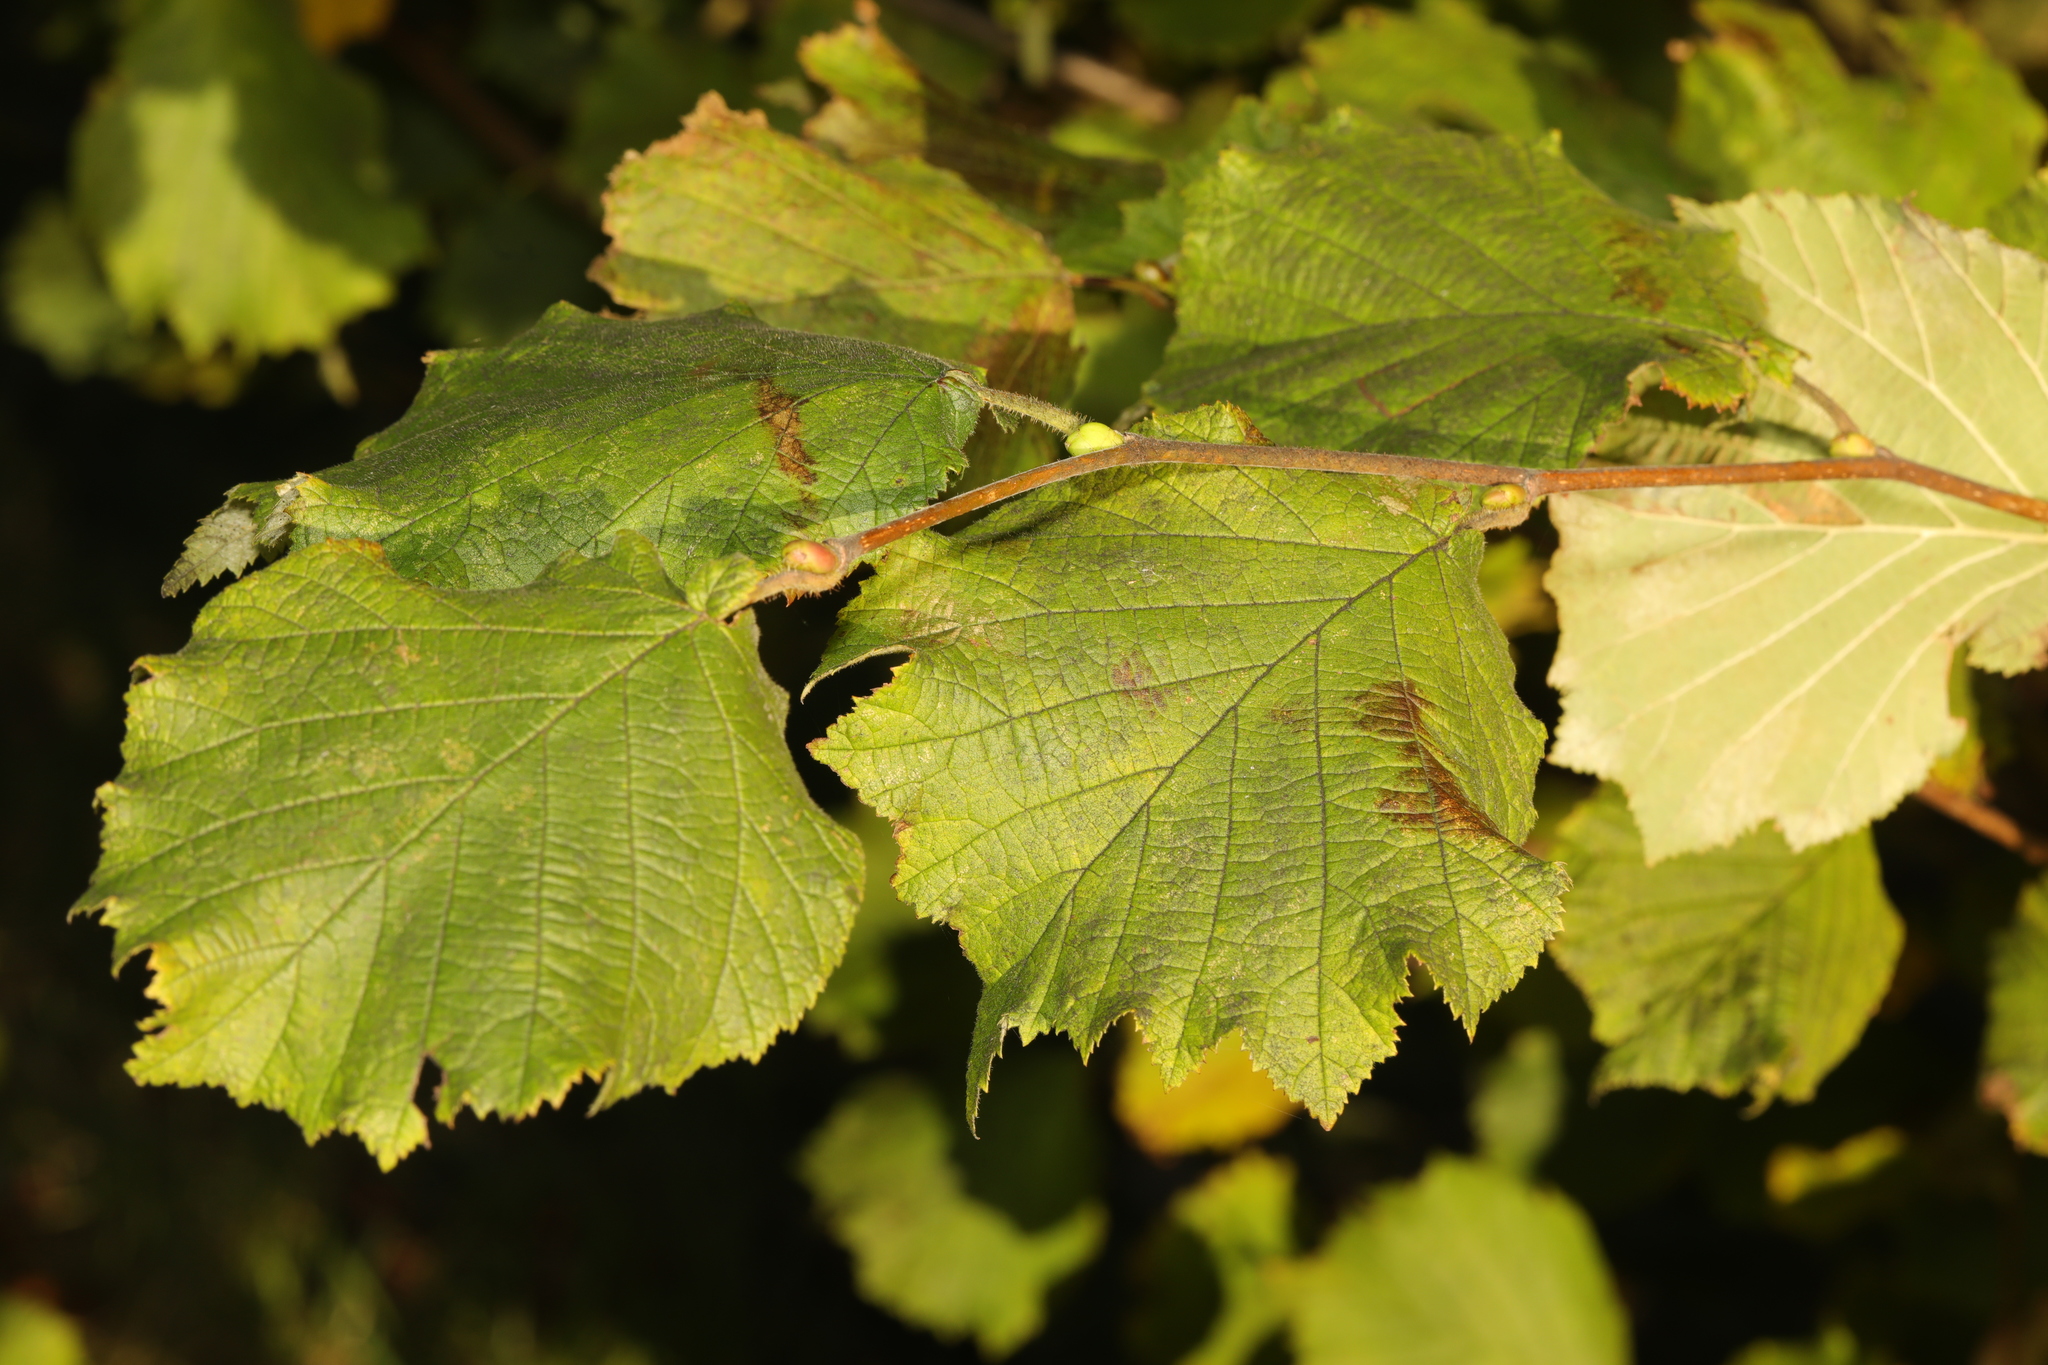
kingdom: Plantae
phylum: Tracheophyta
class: Magnoliopsida
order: Fagales
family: Betulaceae
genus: Corylus
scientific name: Corylus avellana
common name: European hazel
